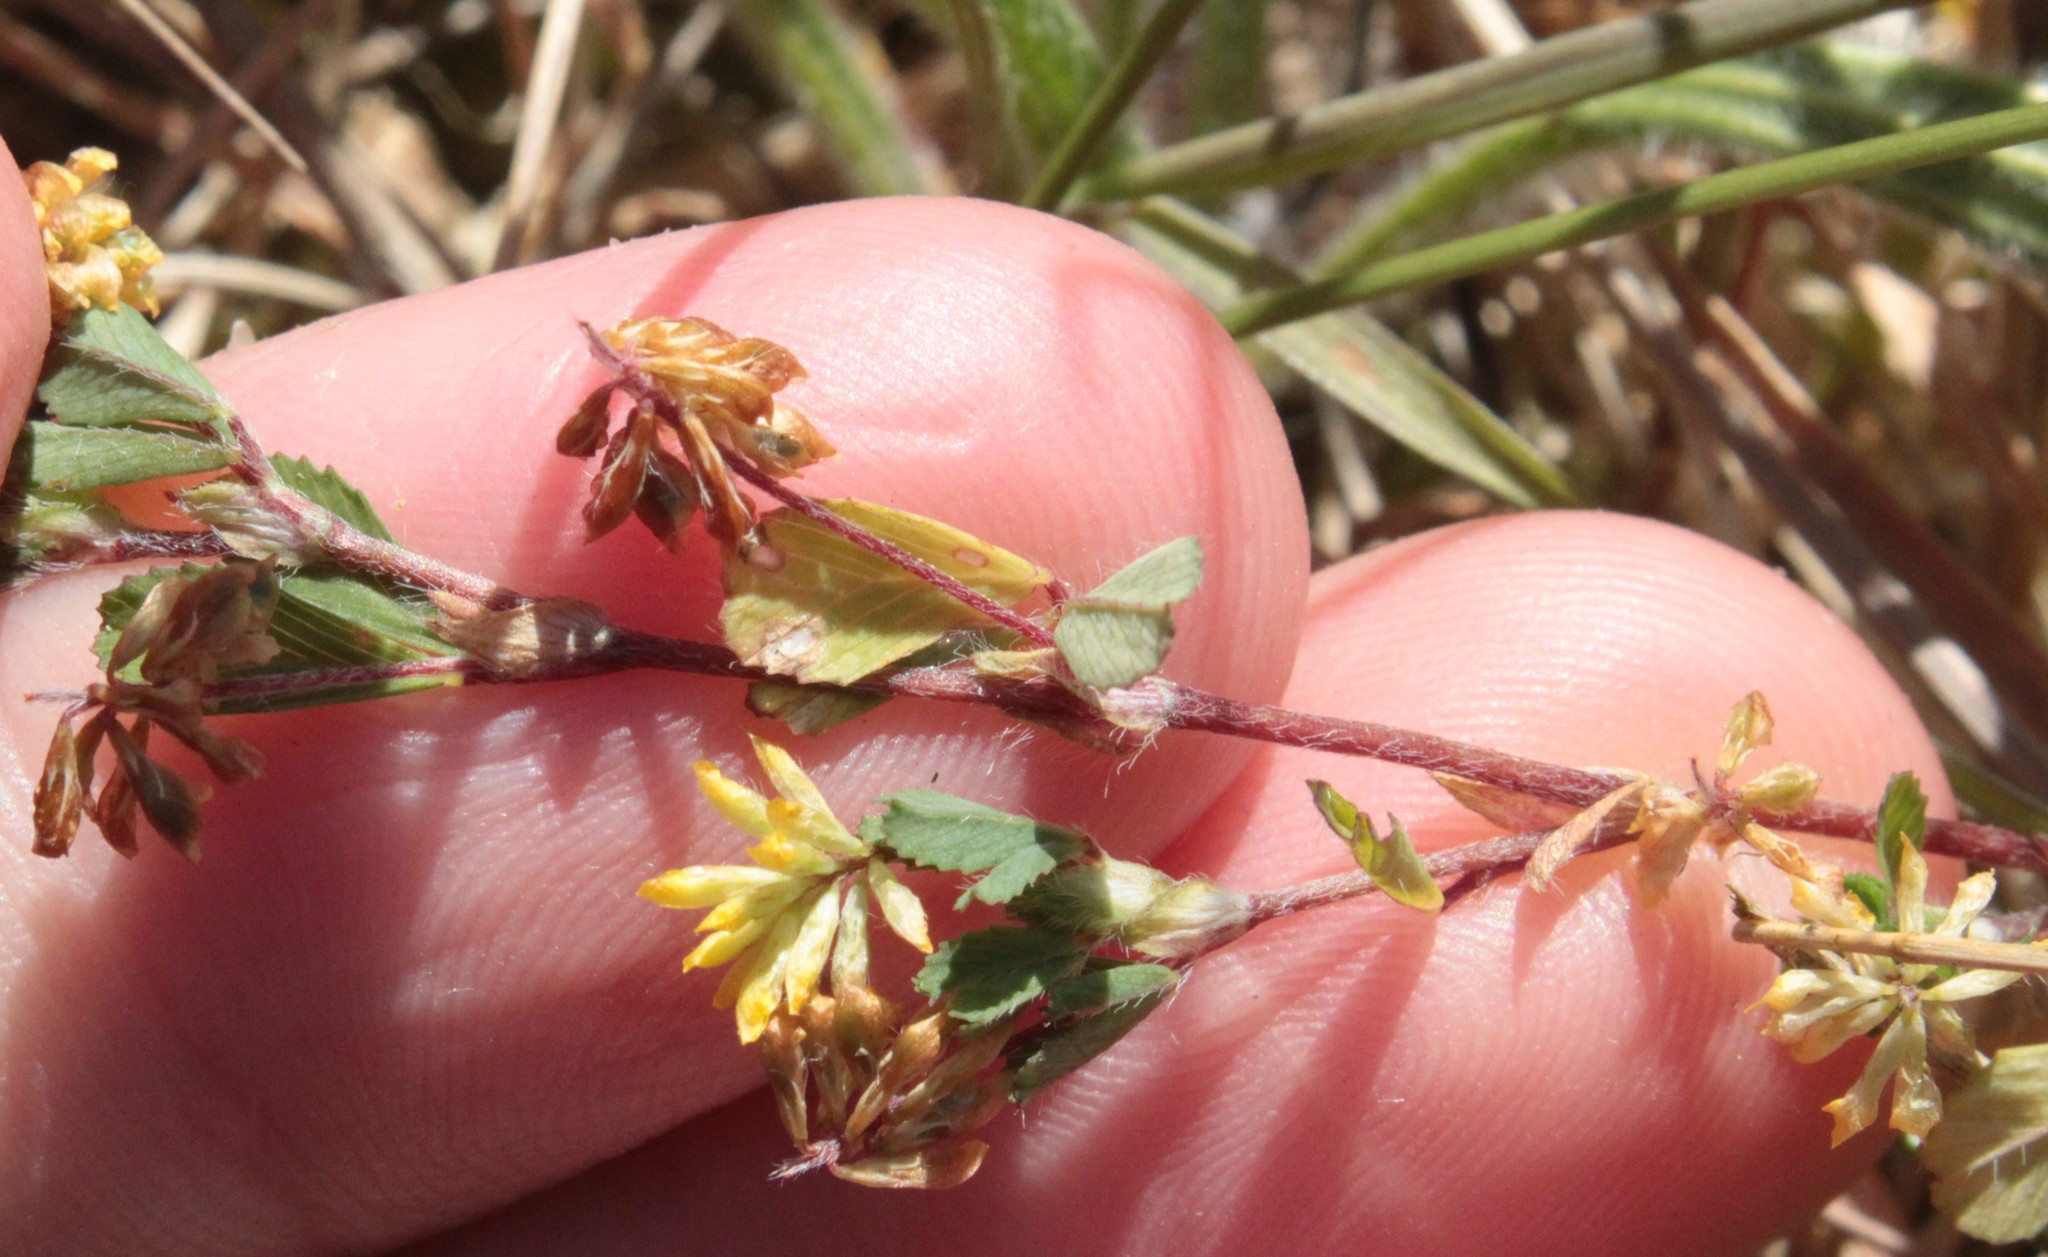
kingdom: Plantae
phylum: Tracheophyta
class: Magnoliopsida
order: Fabales
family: Fabaceae
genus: Trifolium
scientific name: Trifolium dubium
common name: Suckling clover
